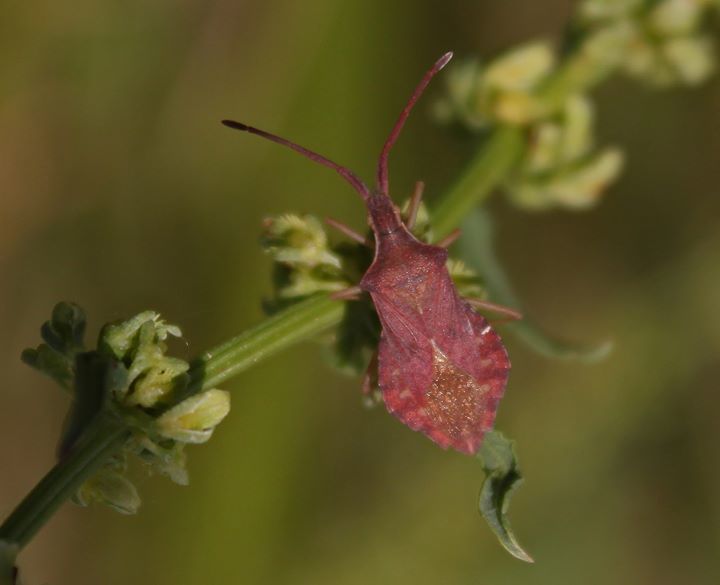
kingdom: Animalia
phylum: Arthropoda
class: Insecta
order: Hemiptera
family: Coreidae
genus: Haploprocta
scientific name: Haploprocta sulcicornis
